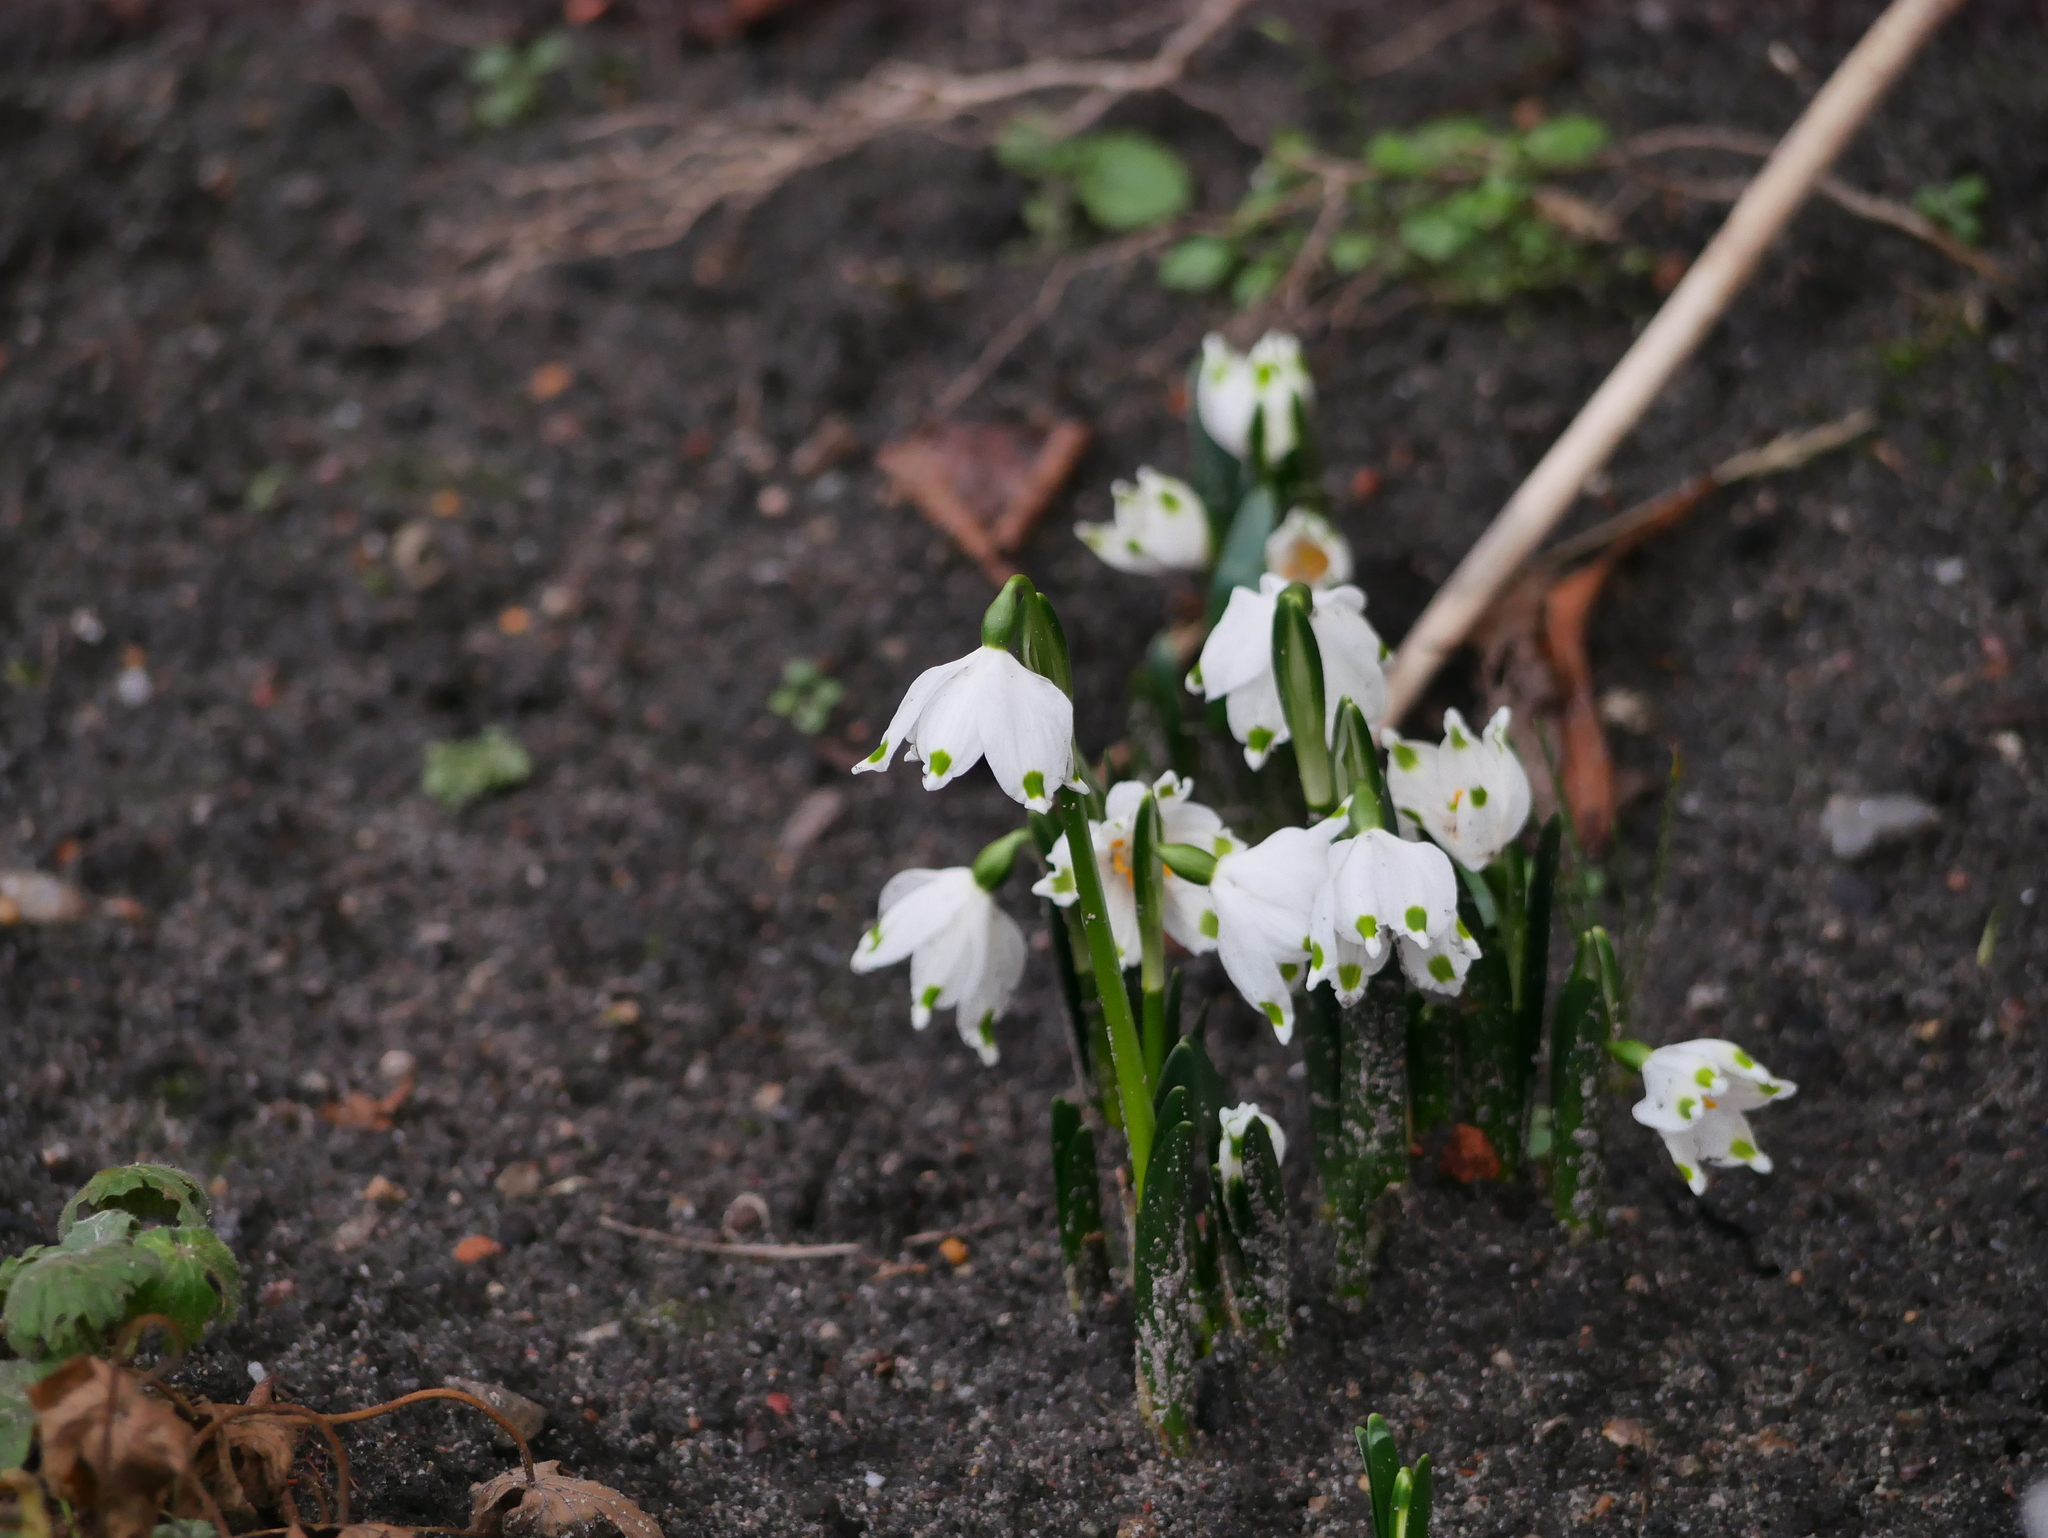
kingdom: Plantae
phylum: Tracheophyta
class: Liliopsida
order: Asparagales
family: Amaryllidaceae
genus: Leucojum
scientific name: Leucojum vernum
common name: Spring snowflake
